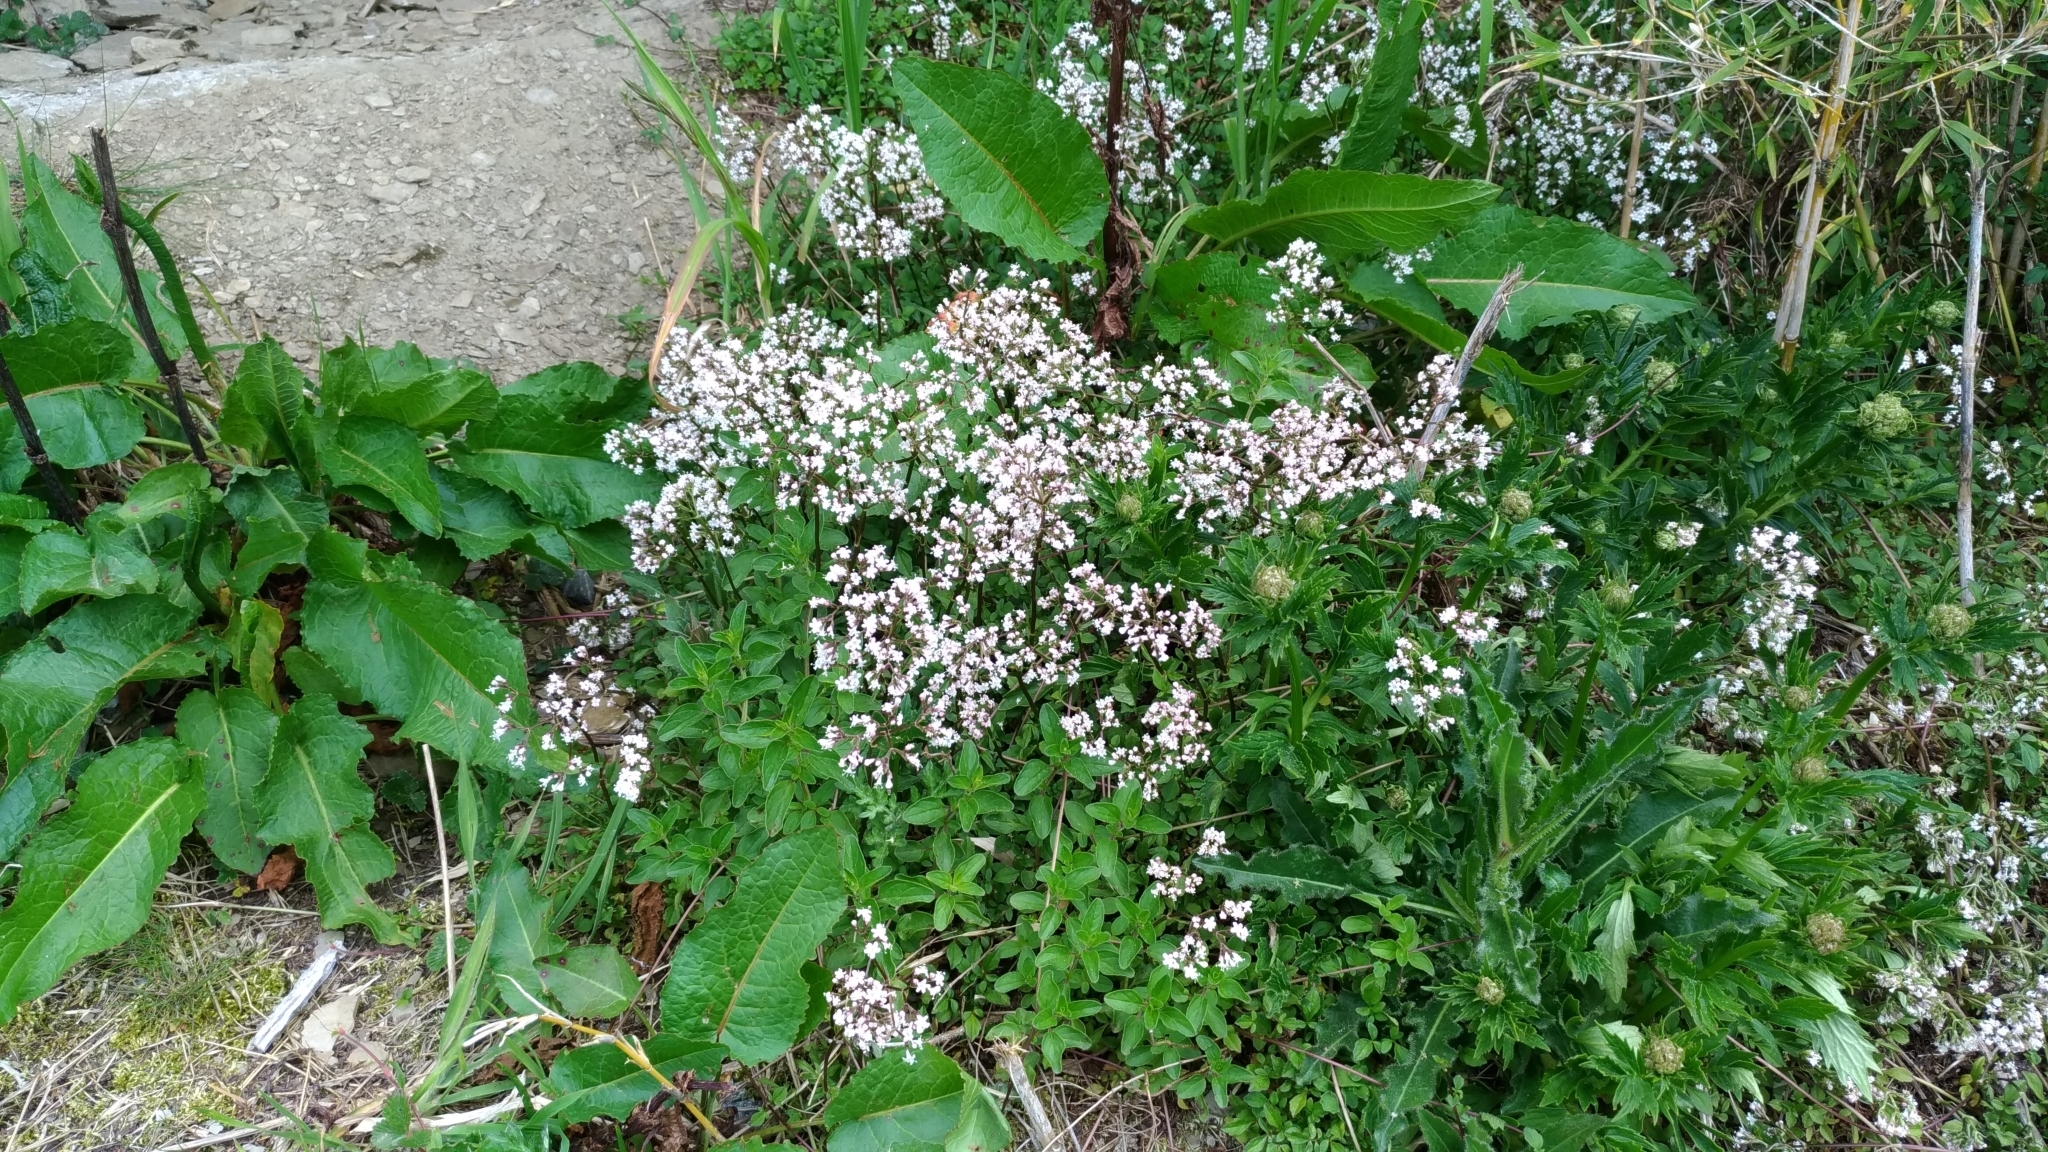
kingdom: Plantae
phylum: Tracheophyta
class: Magnoliopsida
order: Dipsacales
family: Caprifoliaceae
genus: Valeriana
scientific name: Valeriana kawakamii
